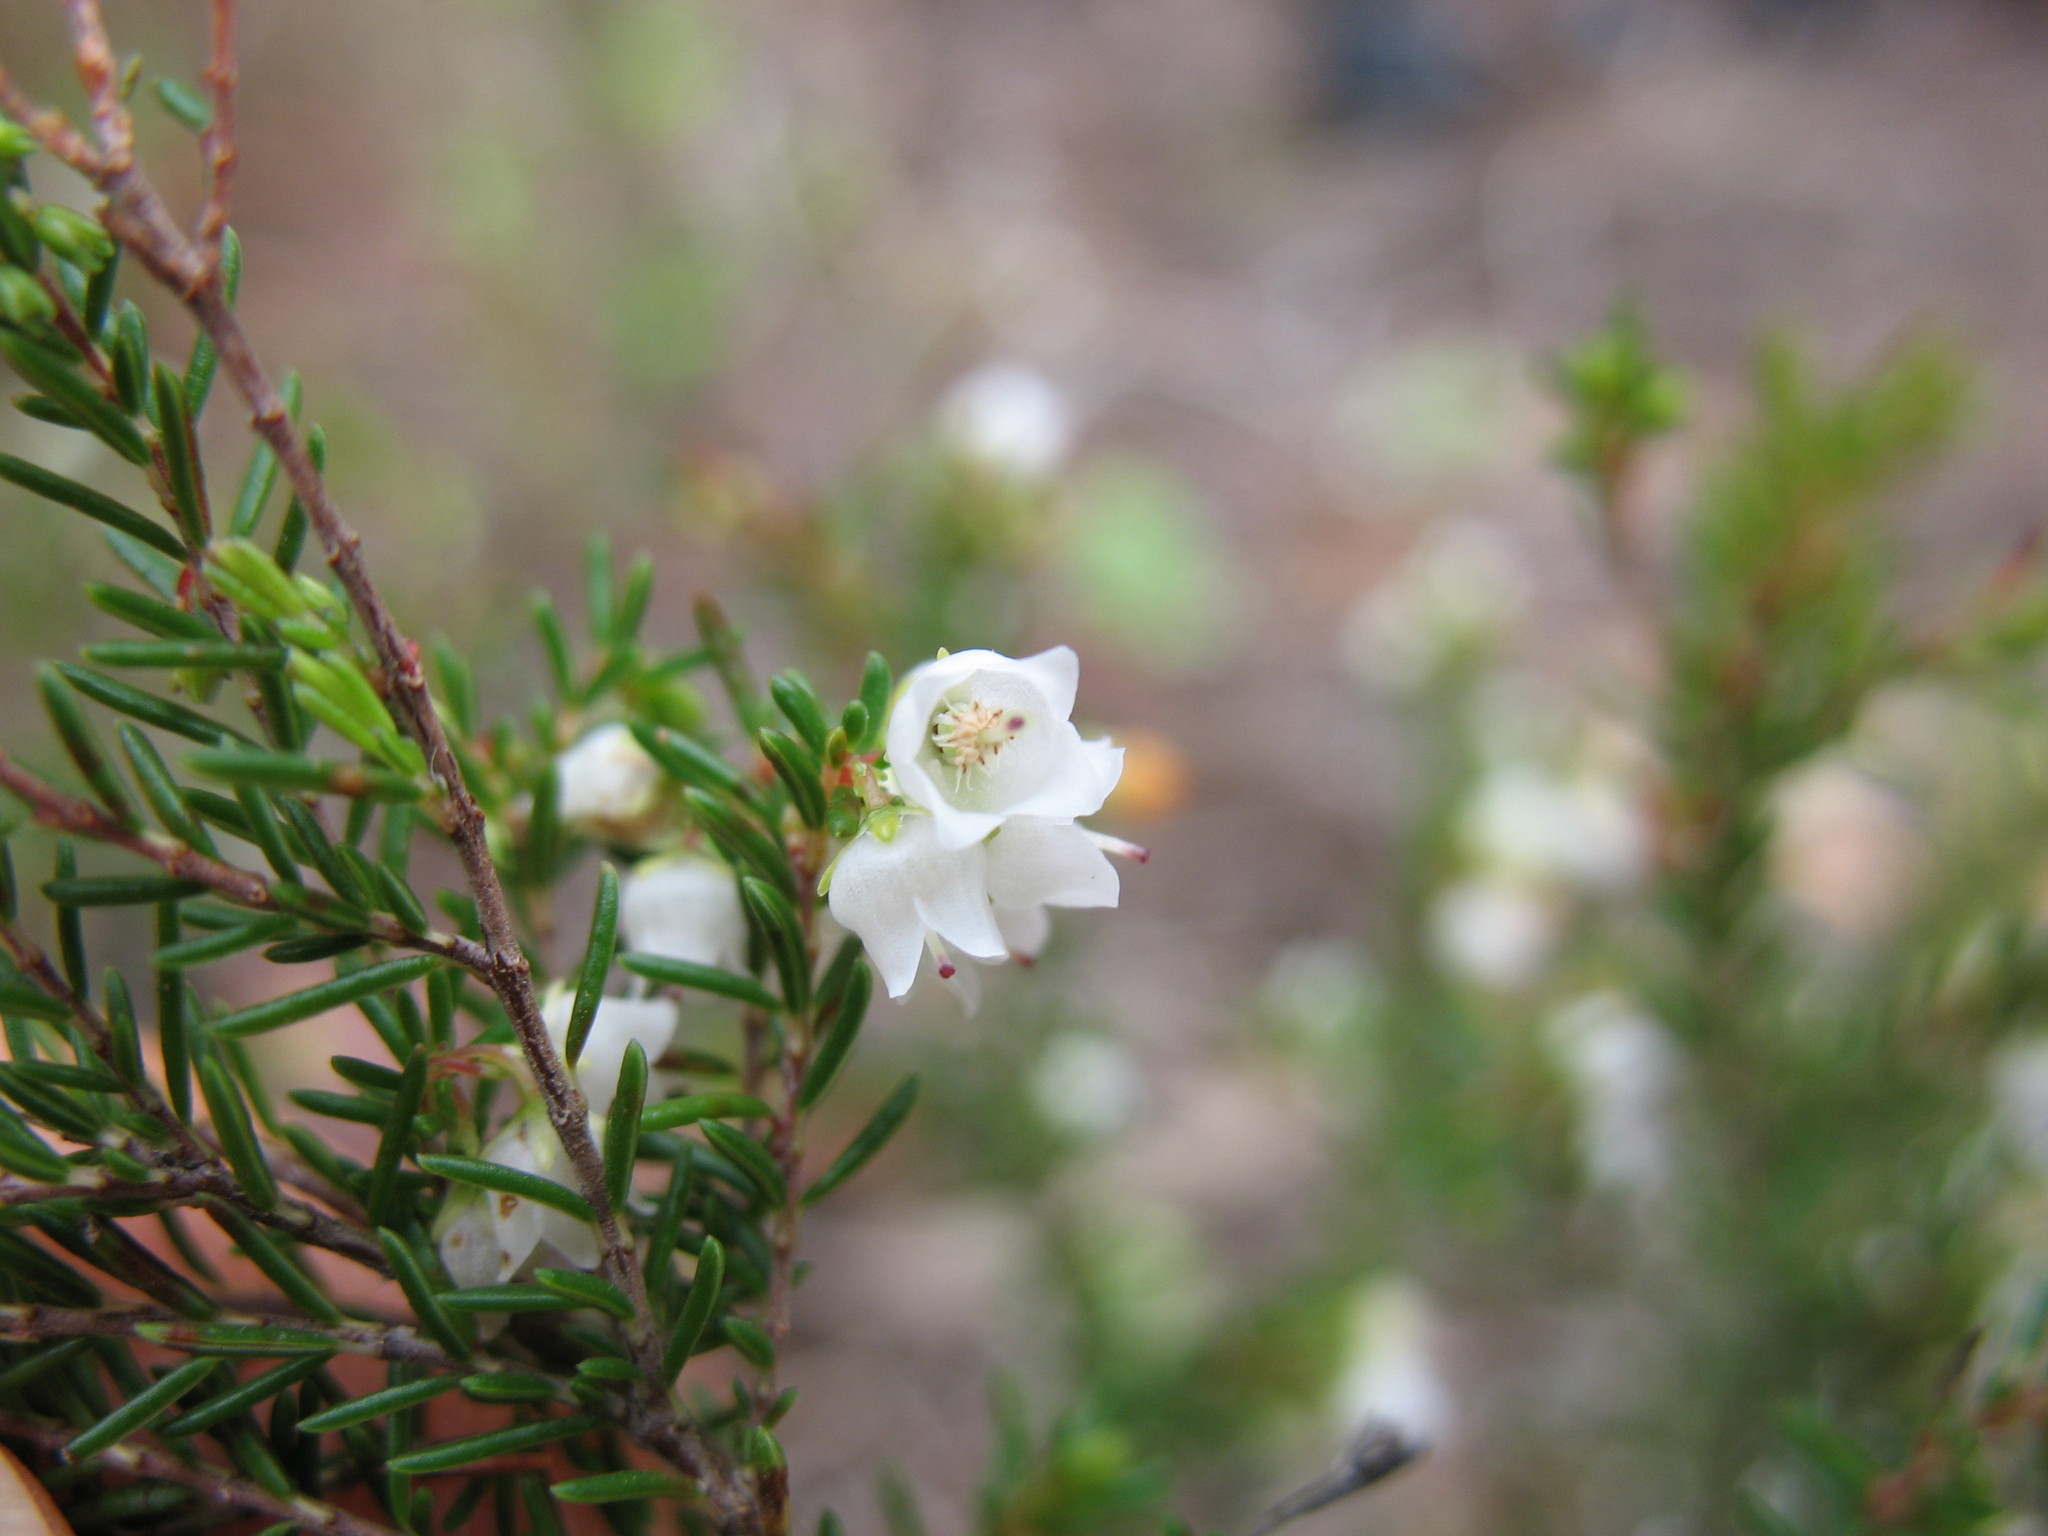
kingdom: Plantae
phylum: Tracheophyta
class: Magnoliopsida
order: Ericales
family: Ericaceae
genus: Erica
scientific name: Erica tenuis
